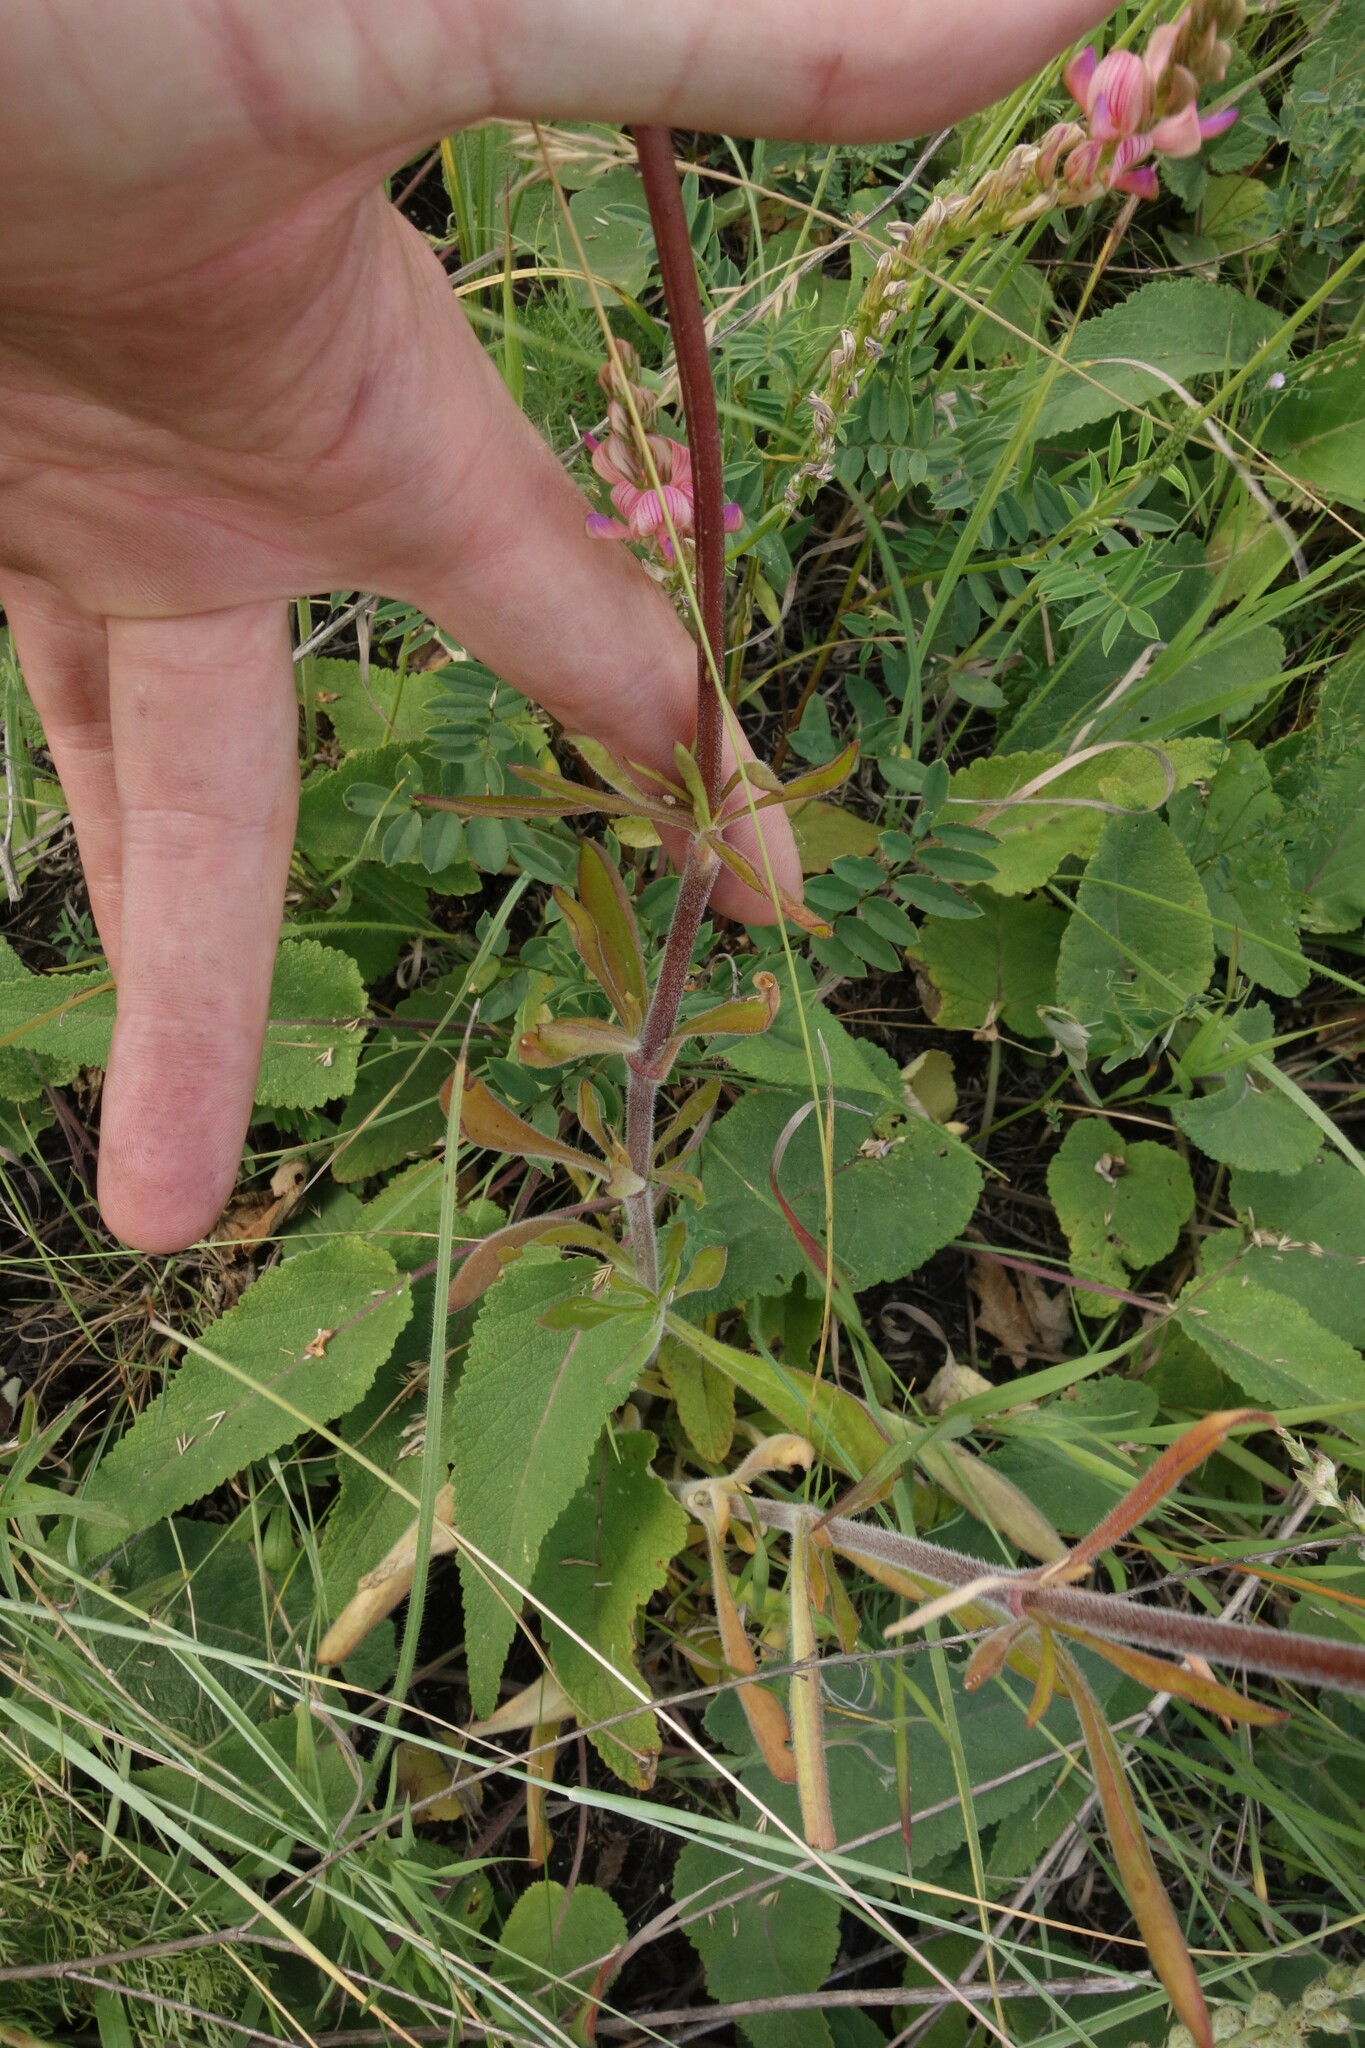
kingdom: Plantae
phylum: Tracheophyta
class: Magnoliopsida
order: Caryophyllales
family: Caryophyllaceae
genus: Silene
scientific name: Silene borysthenica
